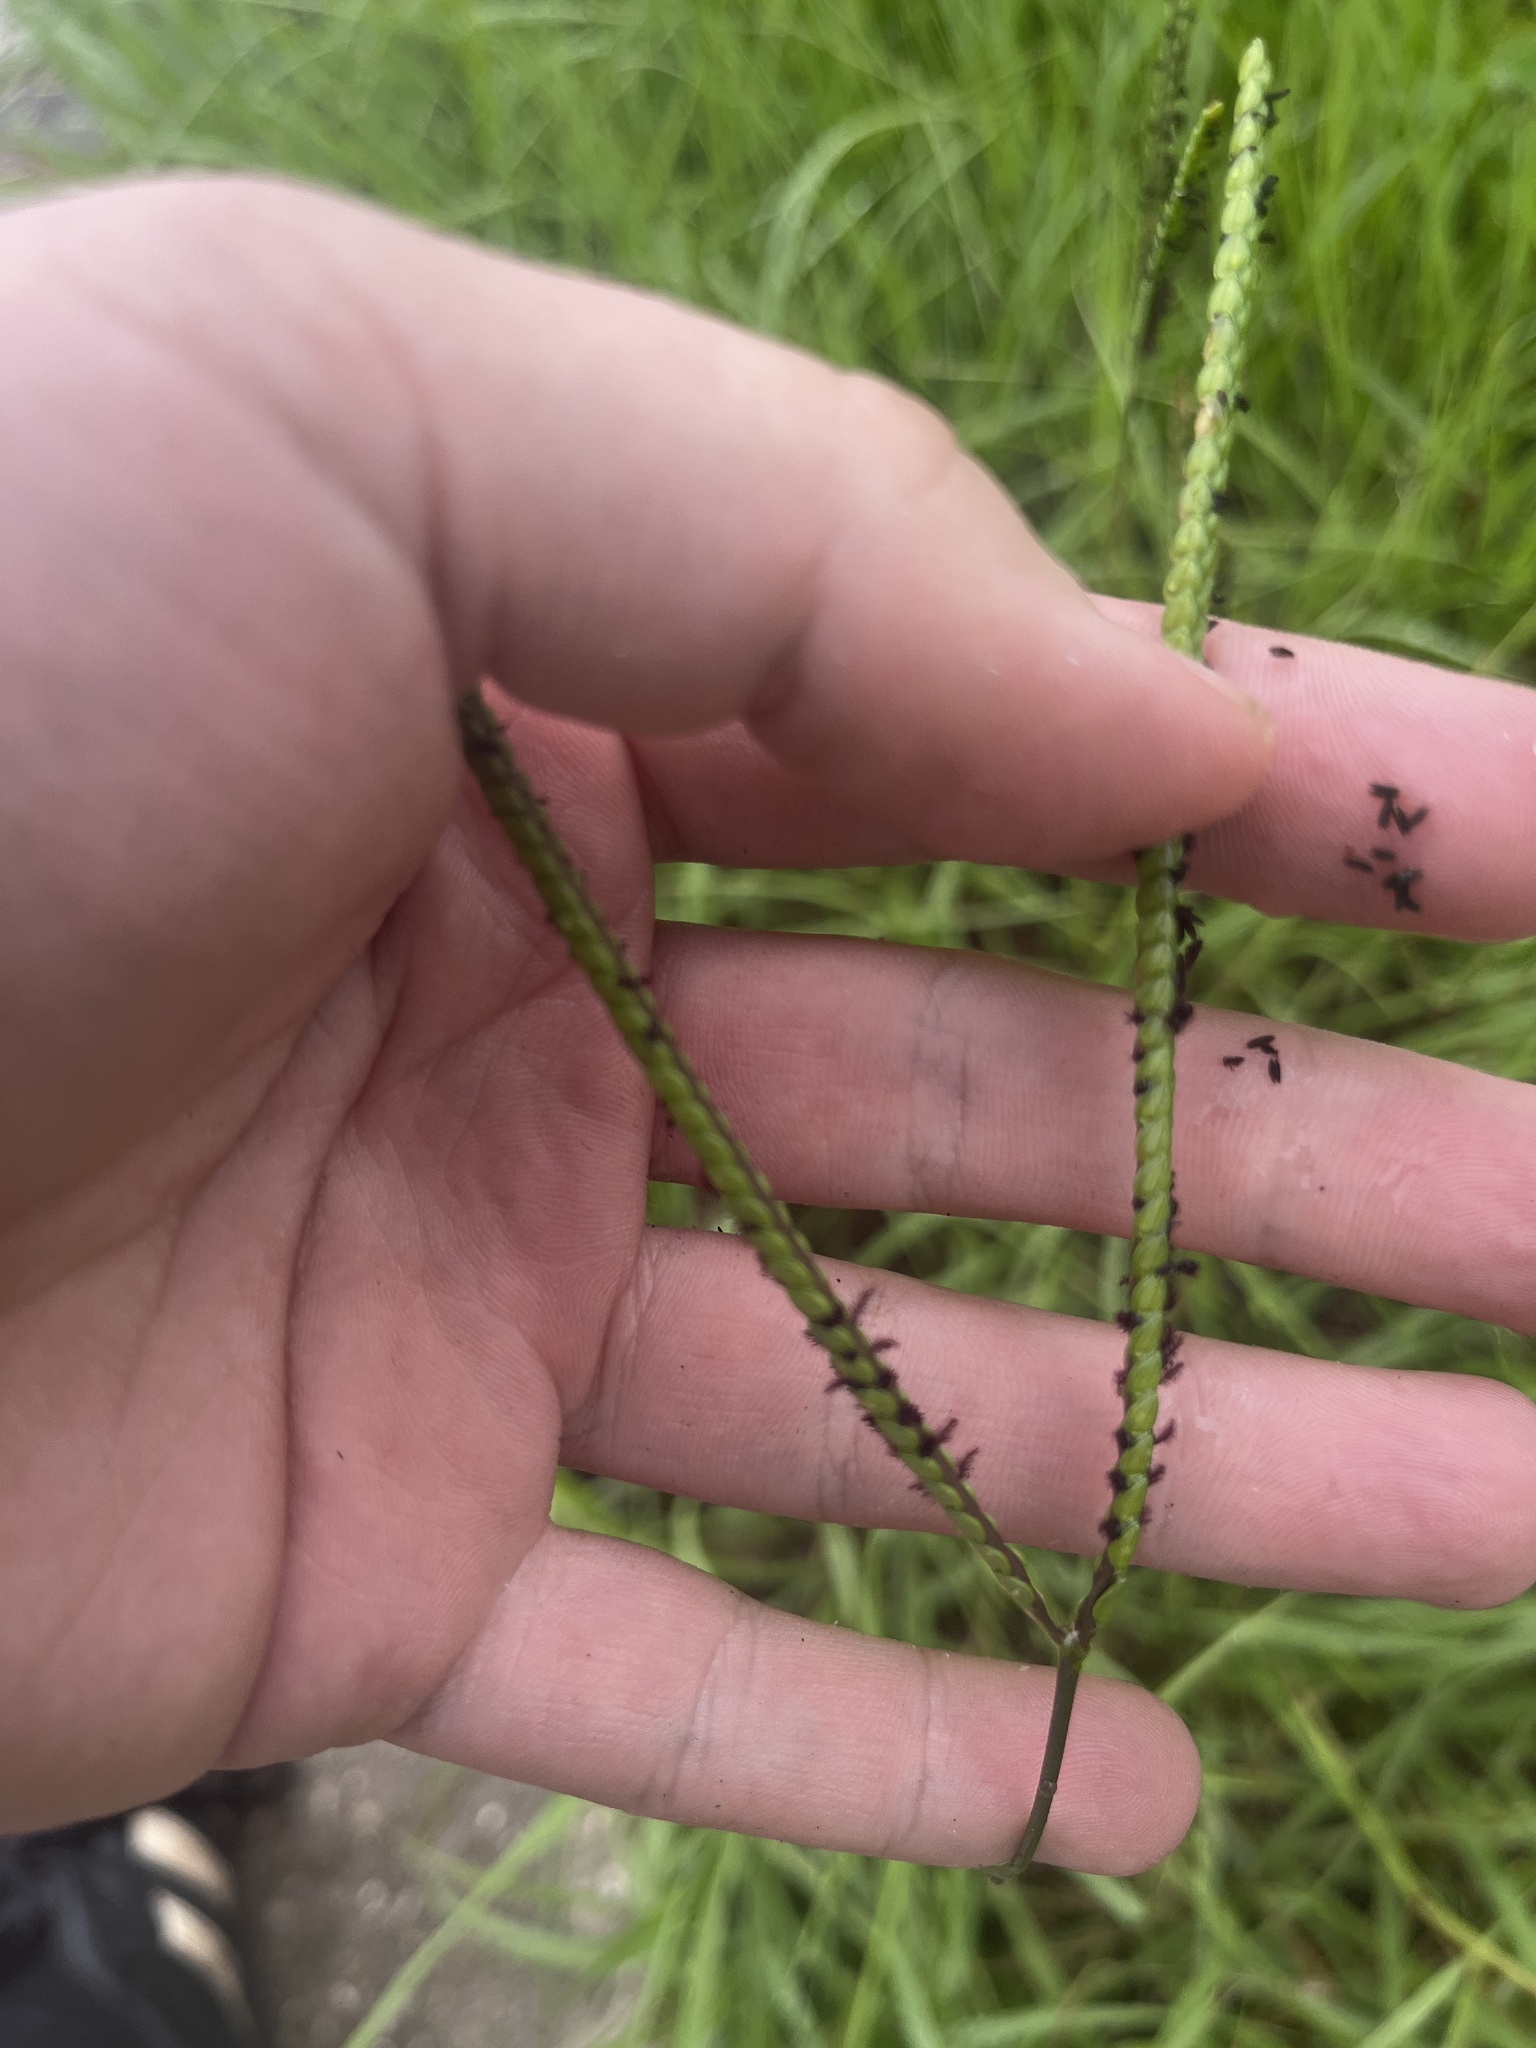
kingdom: Plantae
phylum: Tracheophyta
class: Liliopsida
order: Poales
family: Poaceae
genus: Paspalum
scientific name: Paspalum notatum
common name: Bahiagrass
